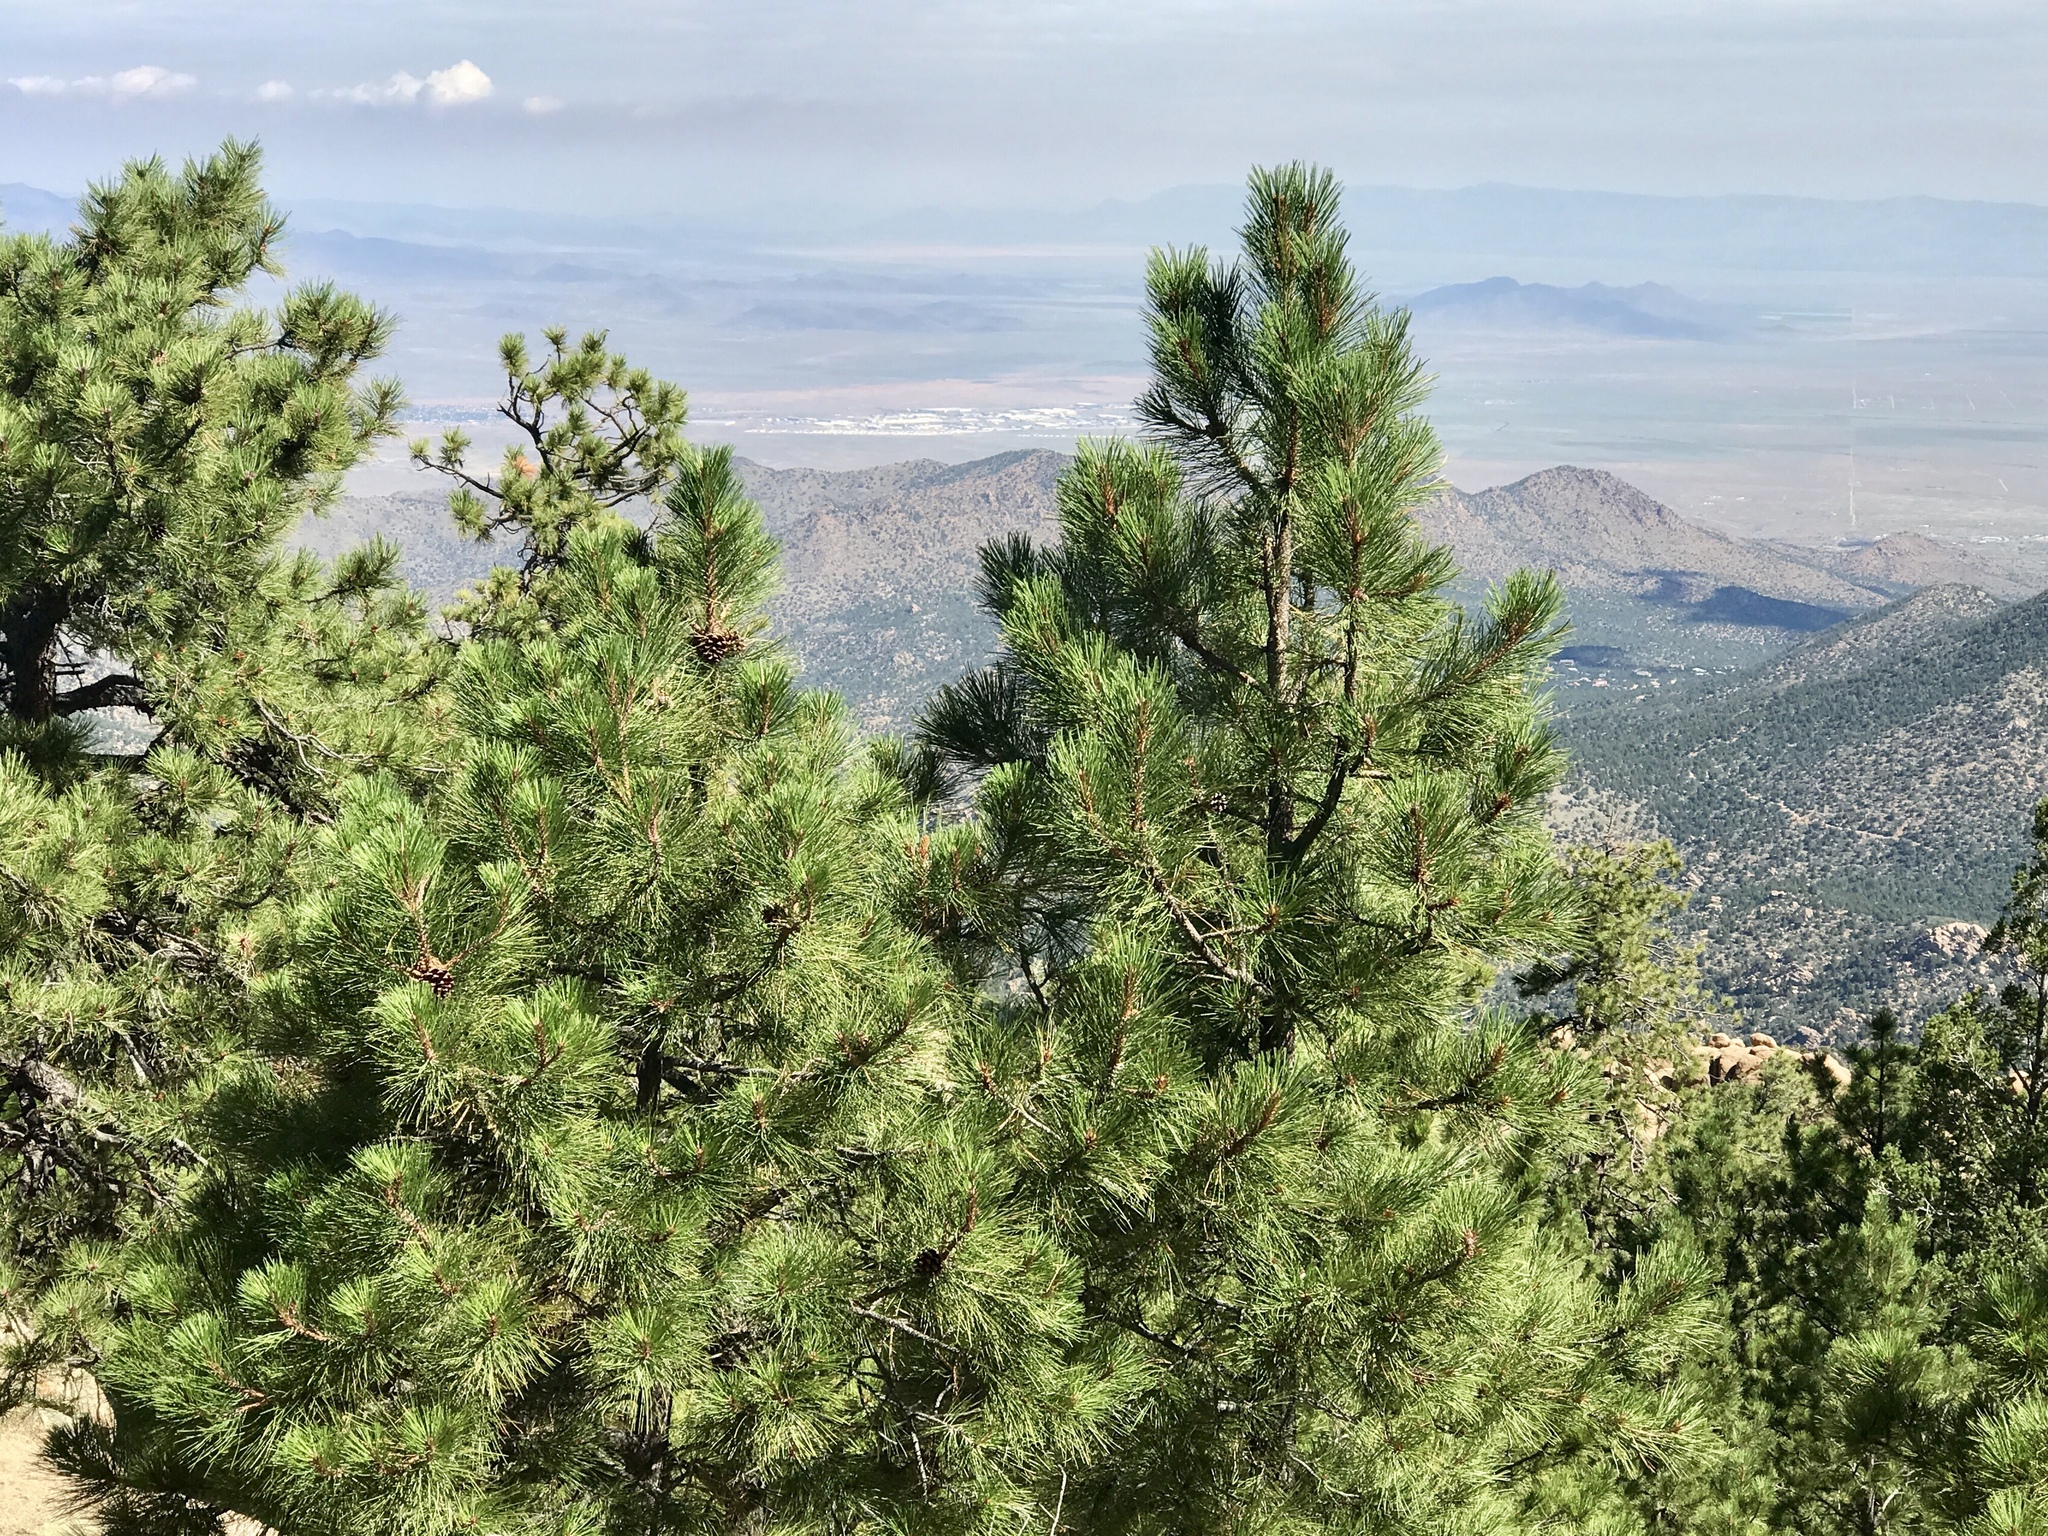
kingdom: Plantae
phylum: Tracheophyta
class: Pinopsida
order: Pinales
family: Pinaceae
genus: Pinus
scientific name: Pinus ponderosa
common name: Western yellow-pine
